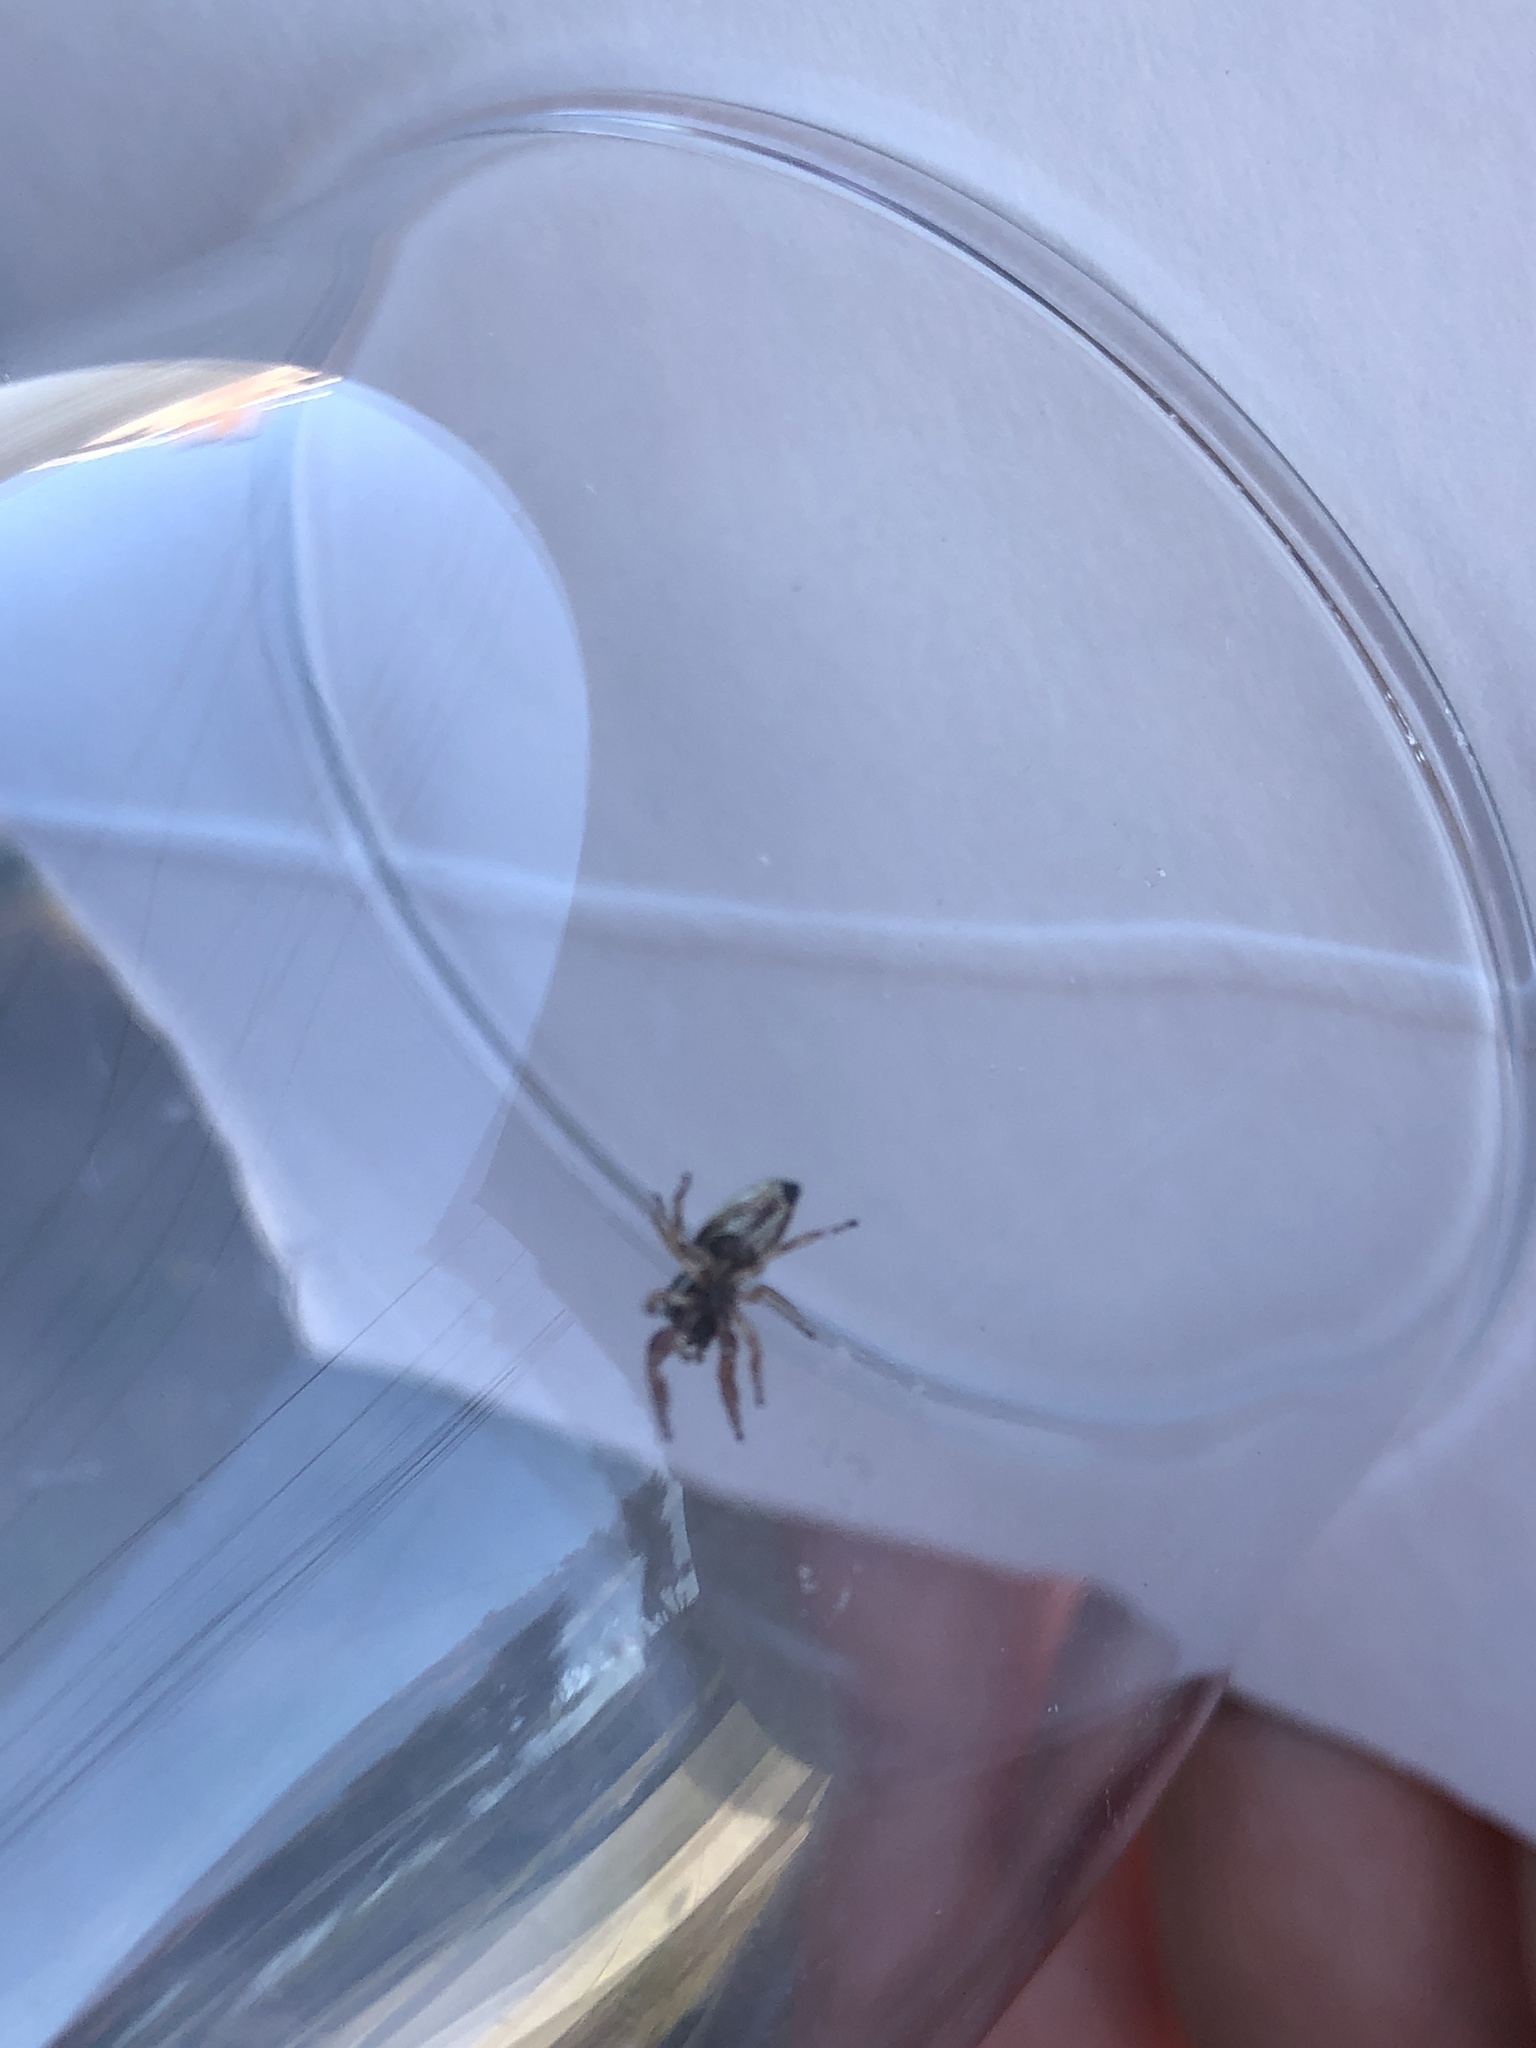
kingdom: Animalia
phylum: Arthropoda
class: Arachnida
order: Araneae
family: Salticidae
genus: Sassacus
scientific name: Sassacus vitis
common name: Jumping spiders
